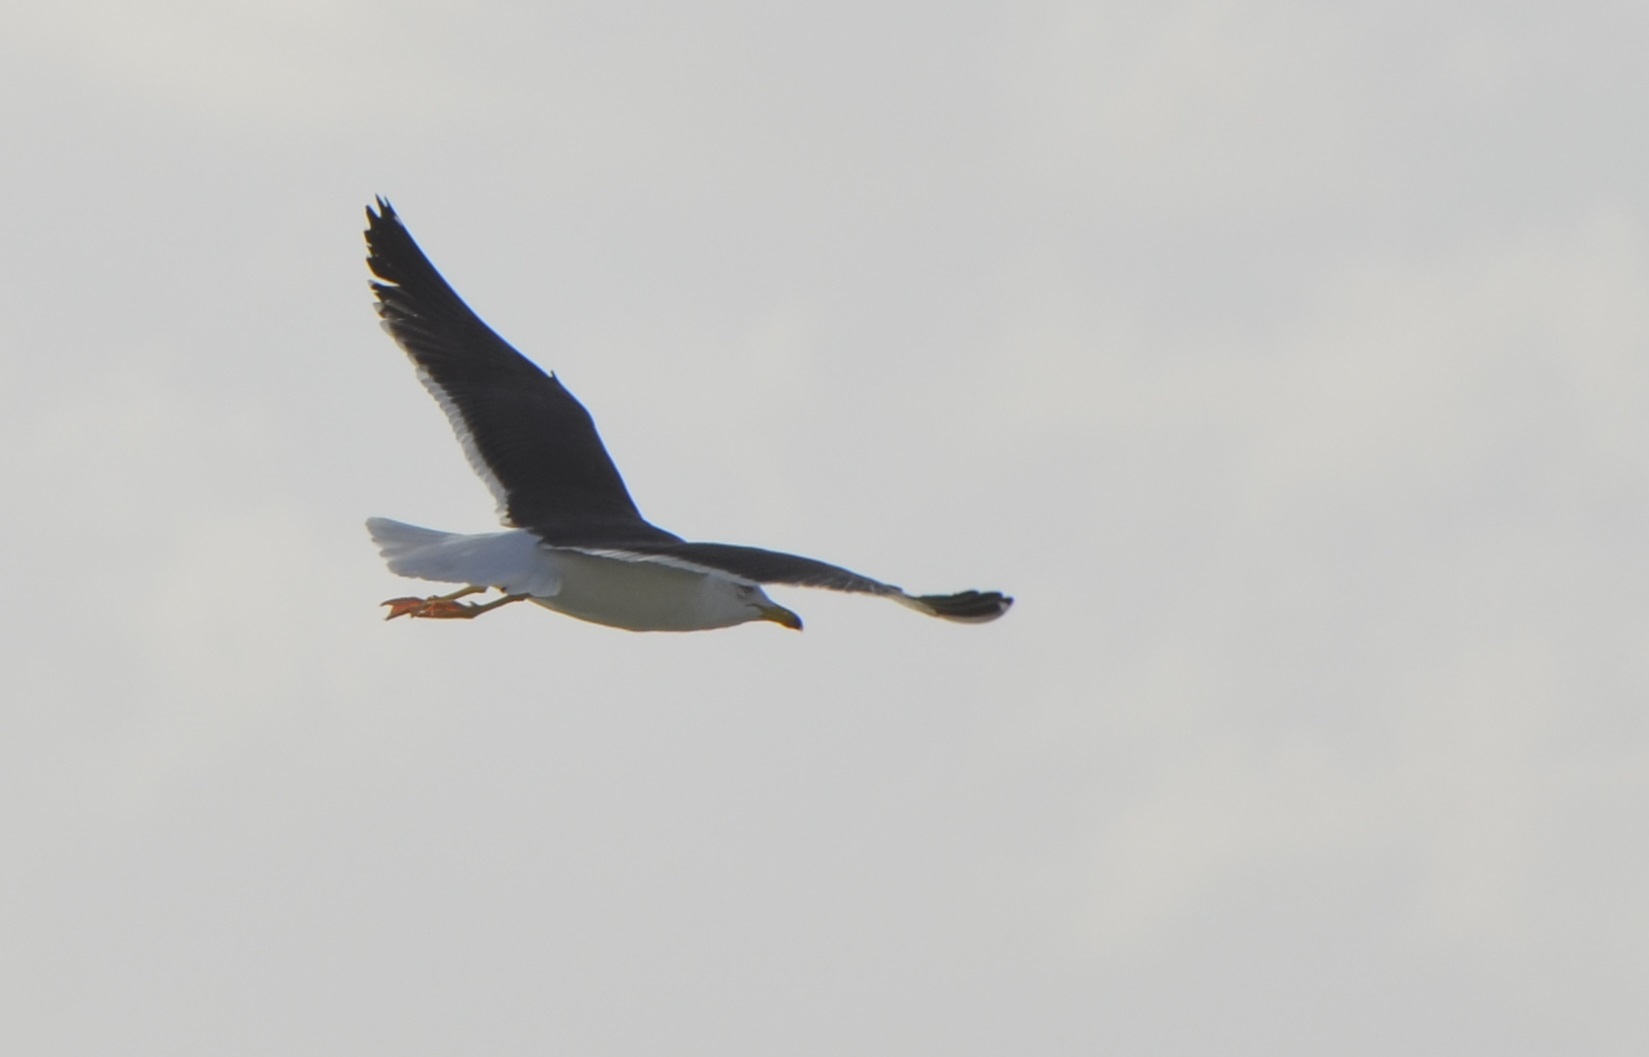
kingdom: Animalia
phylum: Chordata
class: Aves
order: Charadriiformes
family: Laridae
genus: Larus
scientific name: Larus fuscus
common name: Lesser black-backed gull
